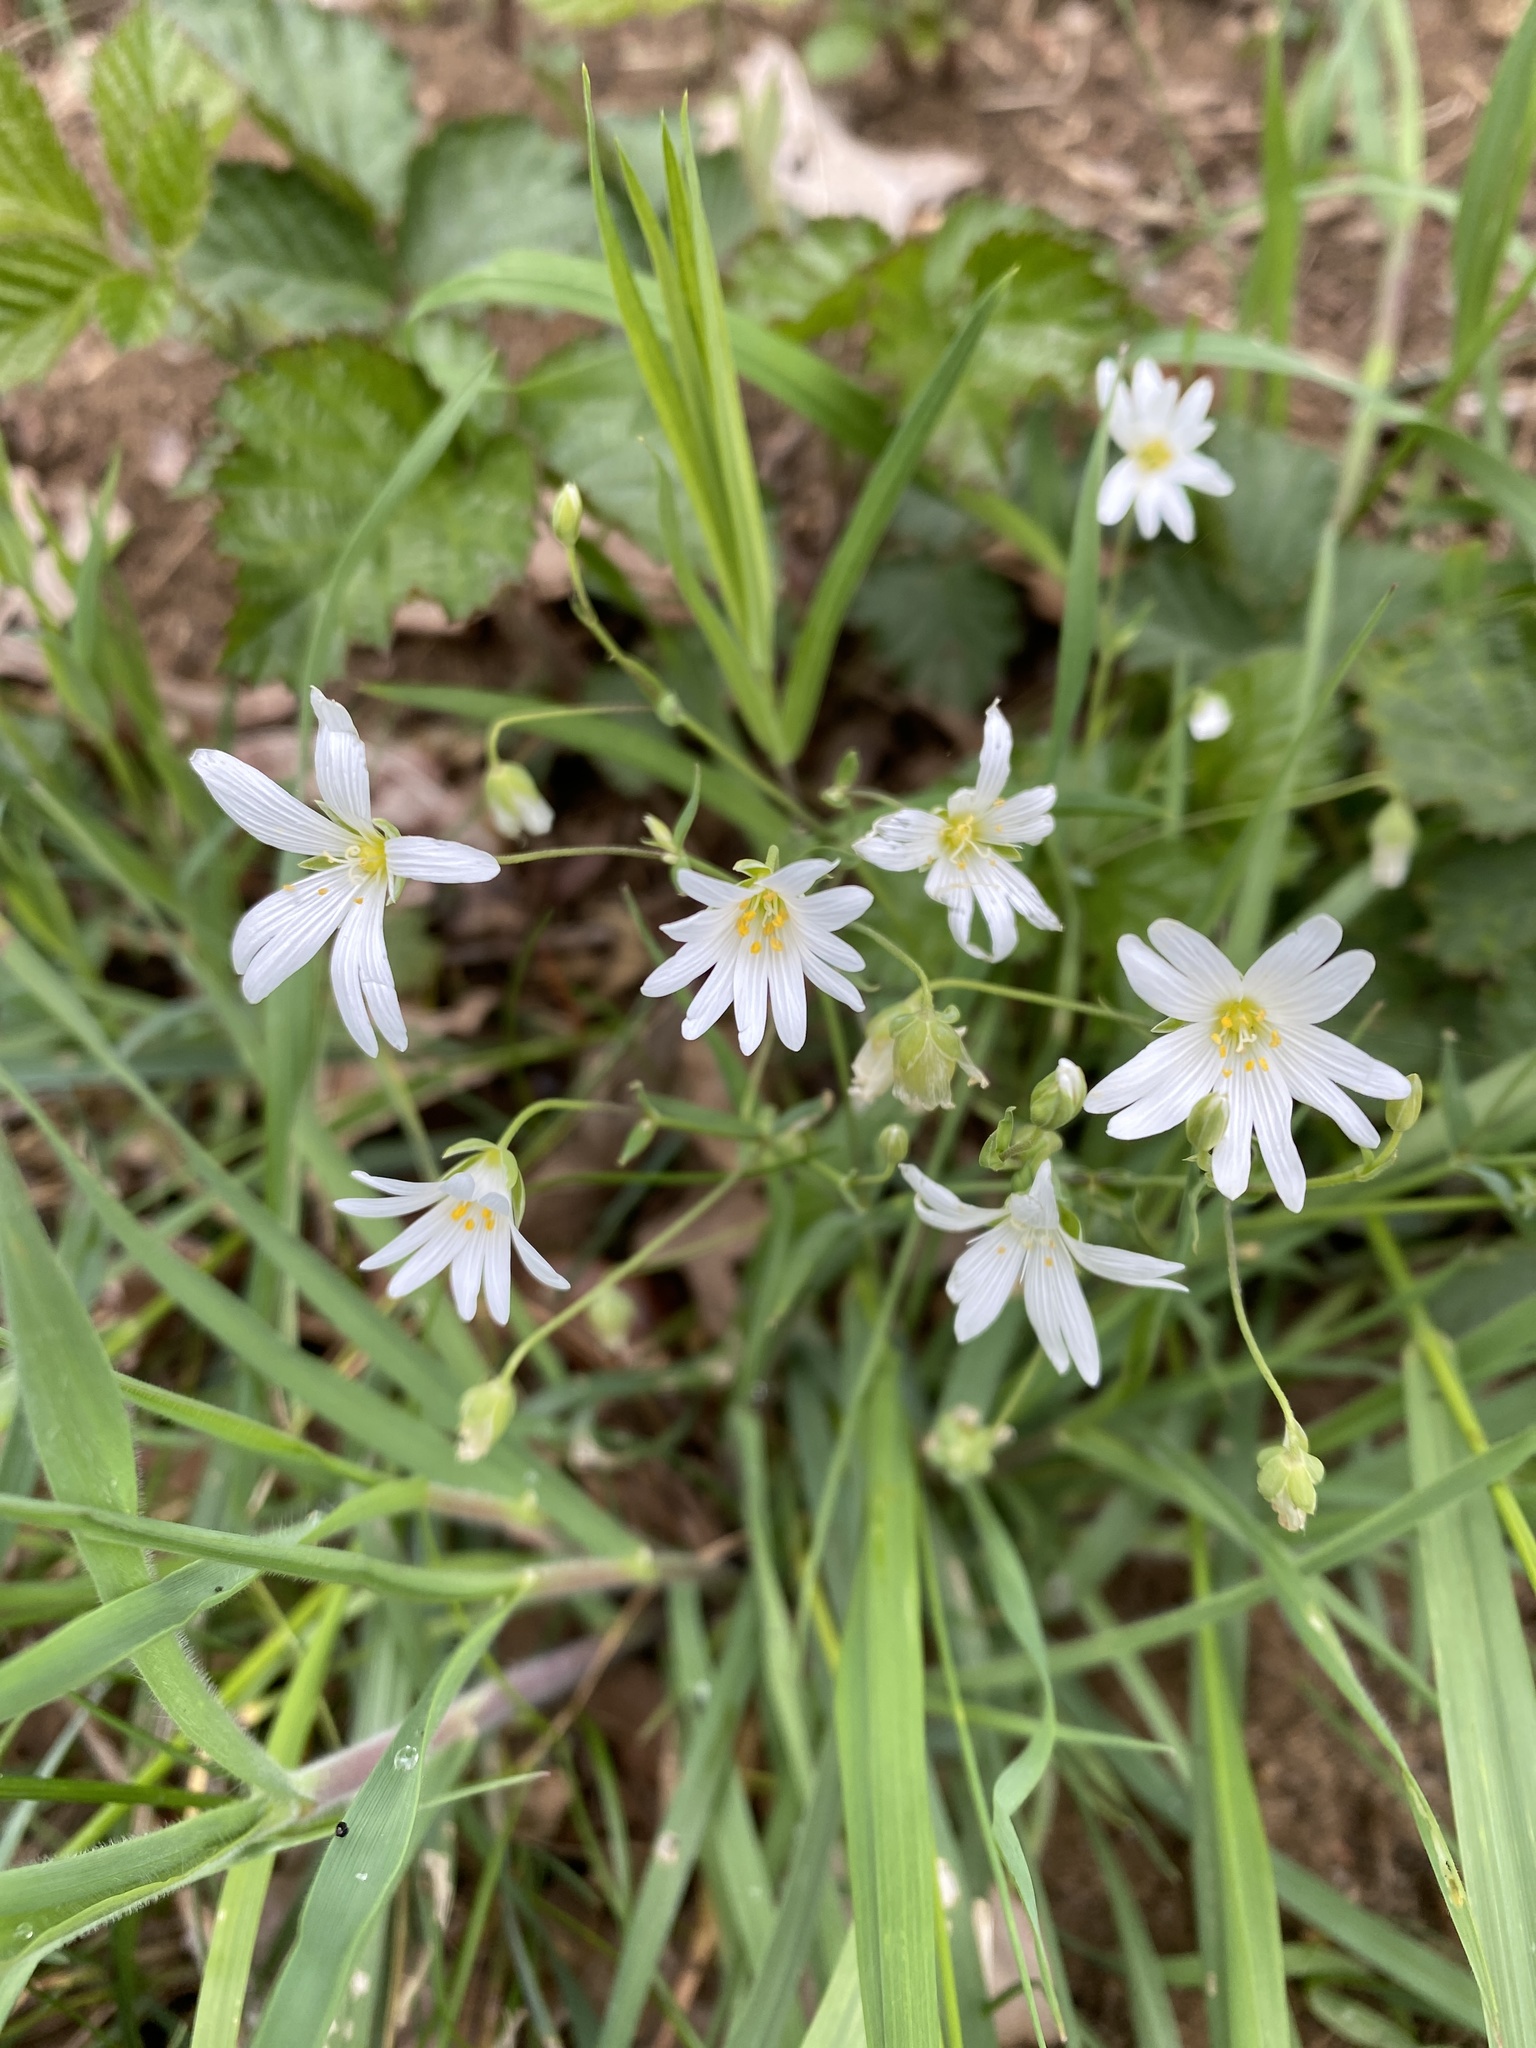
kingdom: Plantae
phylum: Tracheophyta
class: Magnoliopsida
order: Caryophyllales
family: Caryophyllaceae
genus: Rabelera
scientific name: Rabelera holostea
